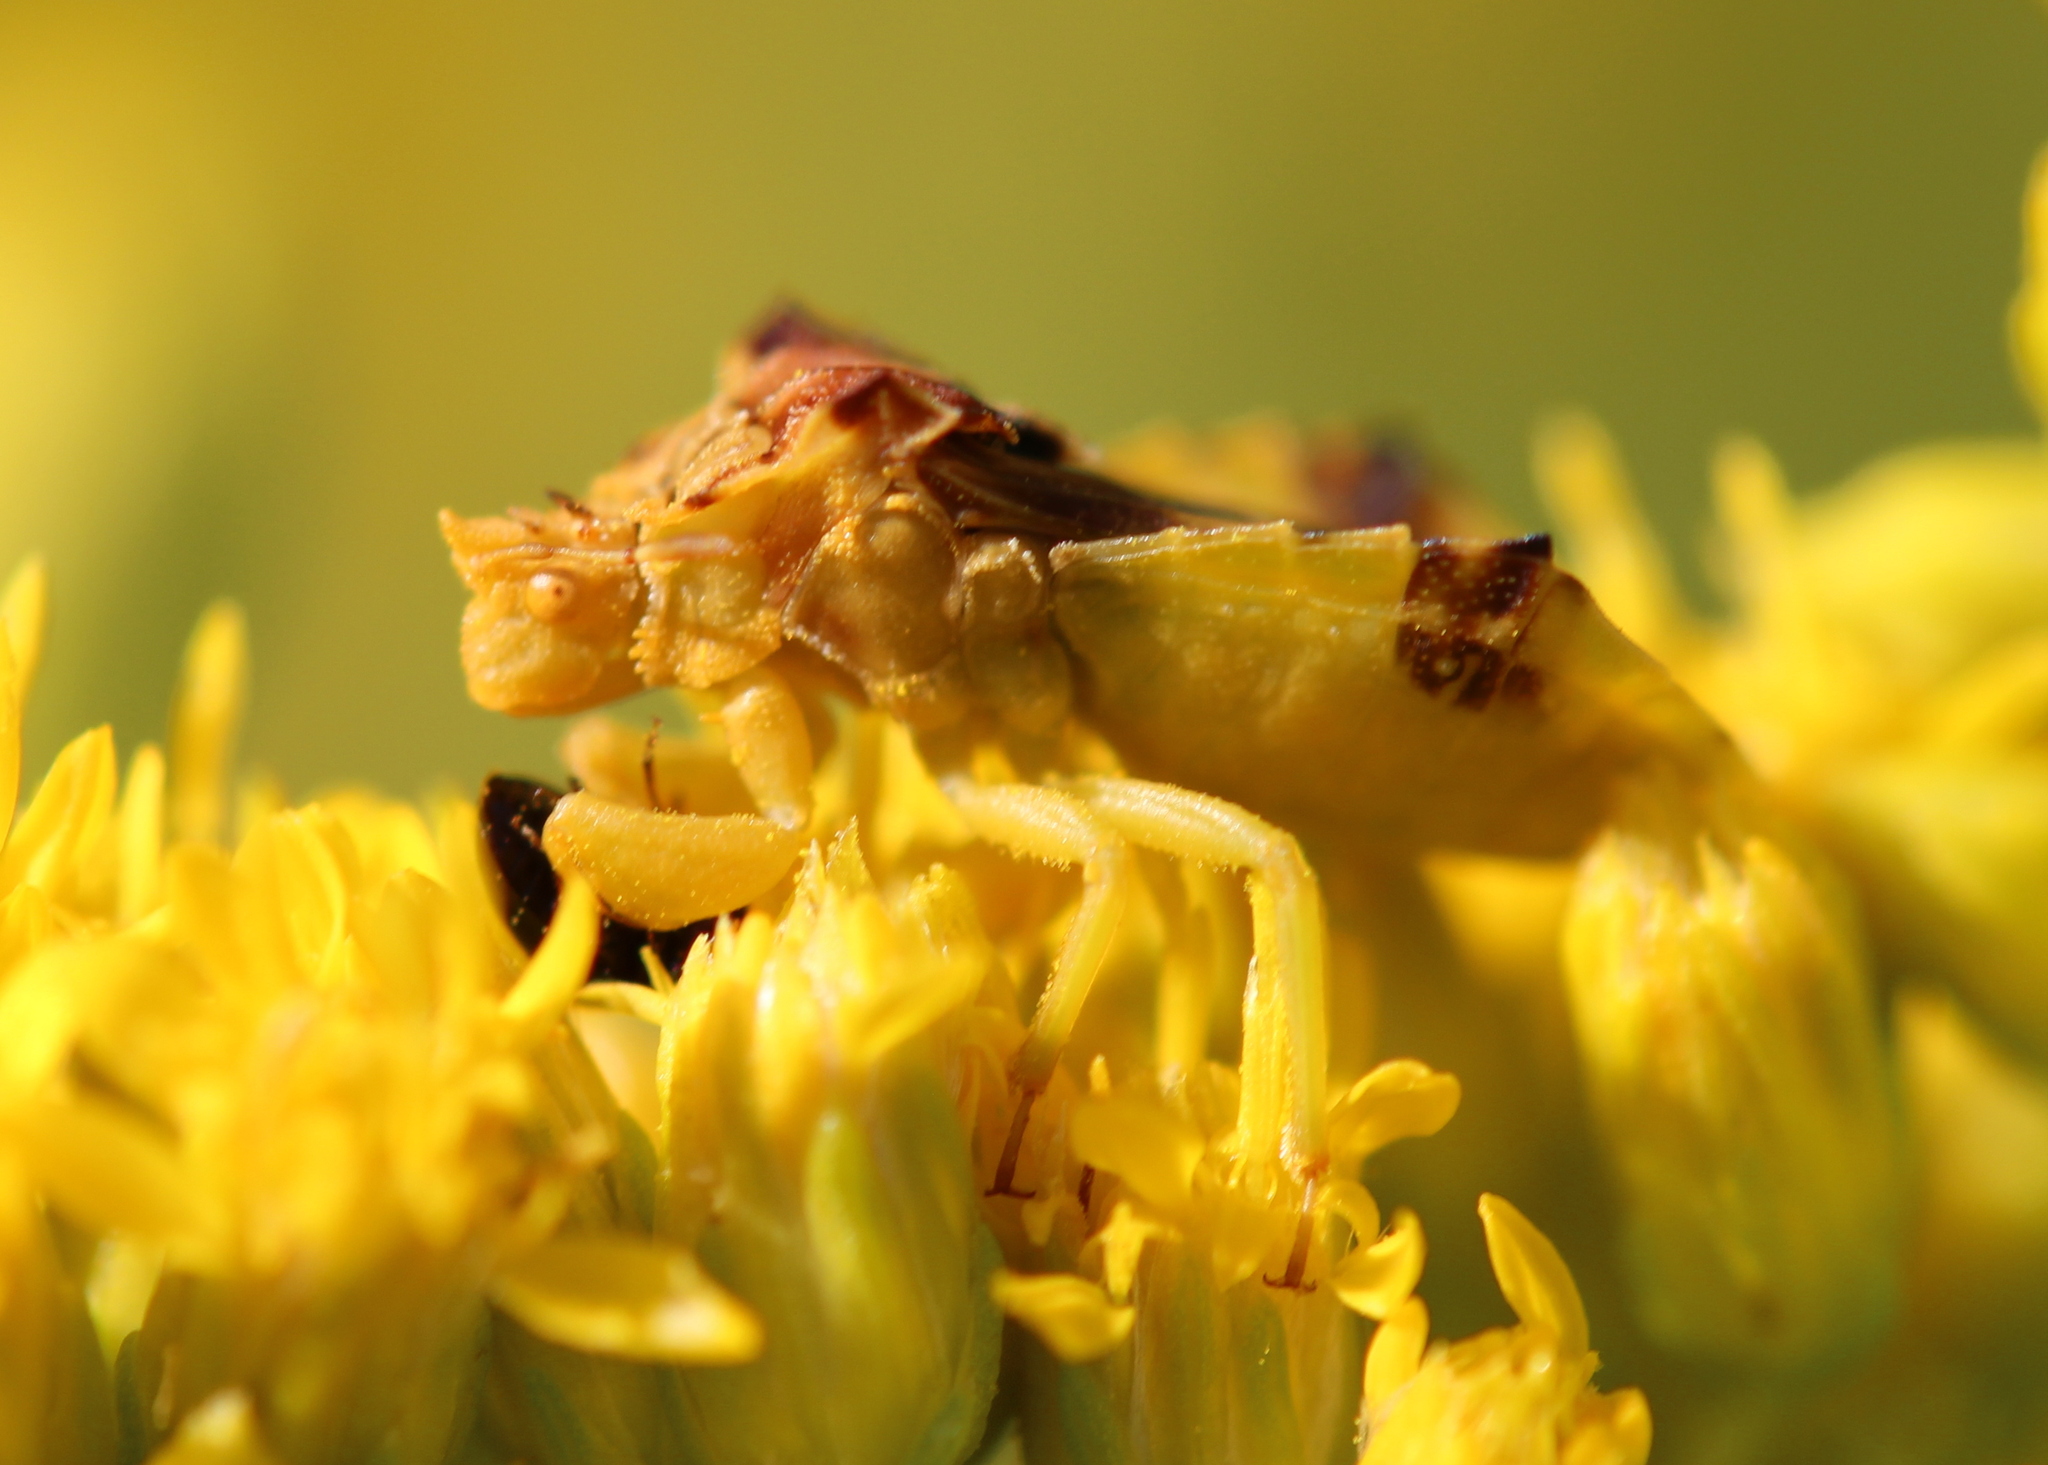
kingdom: Animalia
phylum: Arthropoda
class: Insecta
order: Hemiptera
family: Reduviidae
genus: Phymata
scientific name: Phymata americana
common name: Jagged ambush bug
